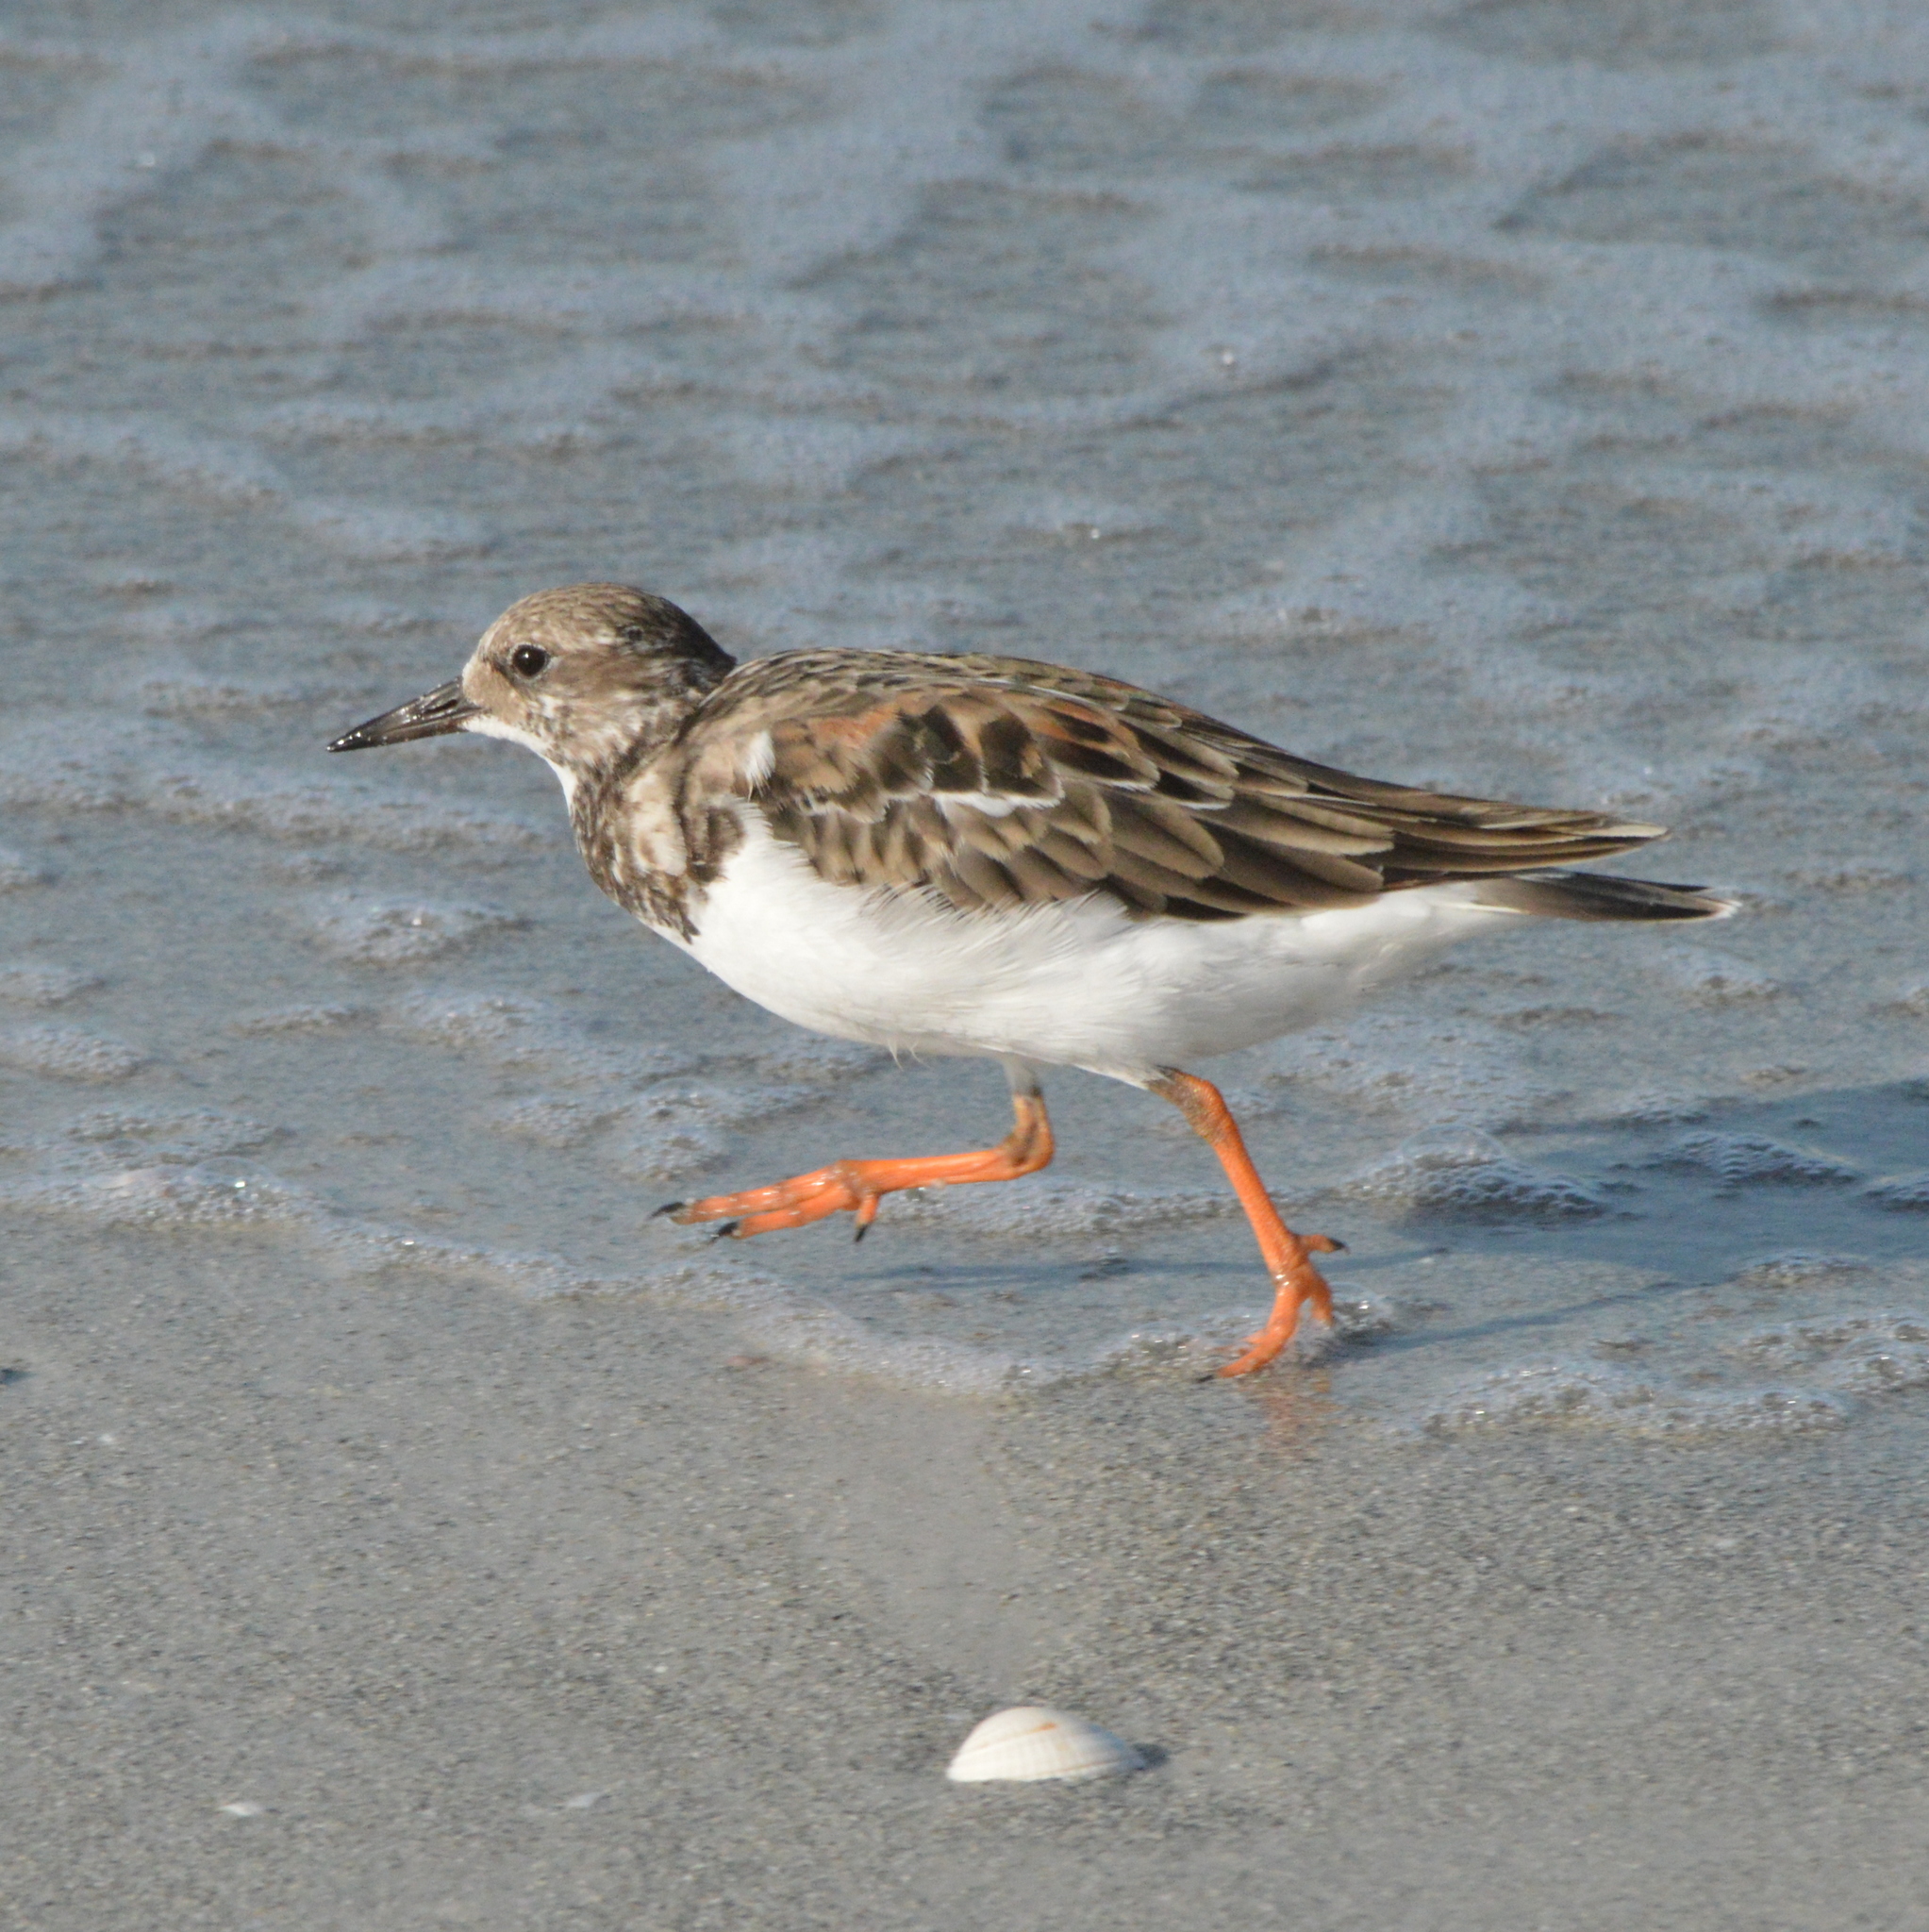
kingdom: Animalia
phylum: Chordata
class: Aves
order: Charadriiformes
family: Scolopacidae
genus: Arenaria
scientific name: Arenaria interpres
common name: Ruddy turnstone
